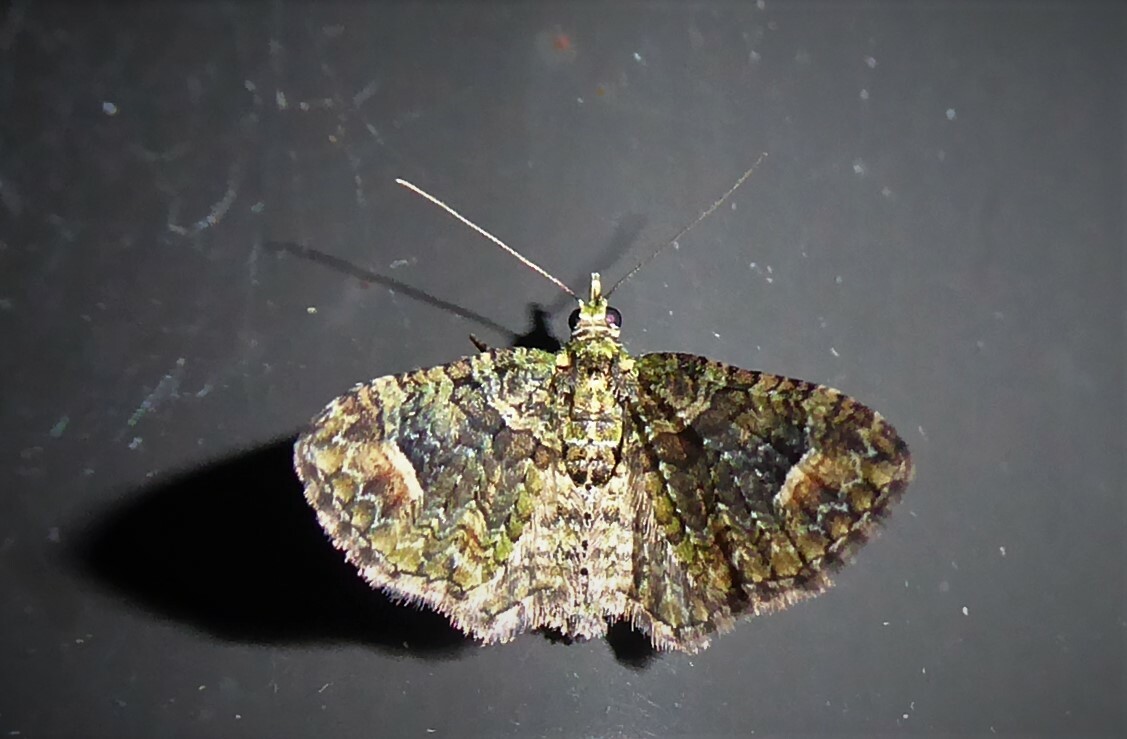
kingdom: Animalia
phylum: Arthropoda
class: Insecta
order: Lepidoptera
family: Geometridae
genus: Idaea
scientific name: Idaea mutanda
